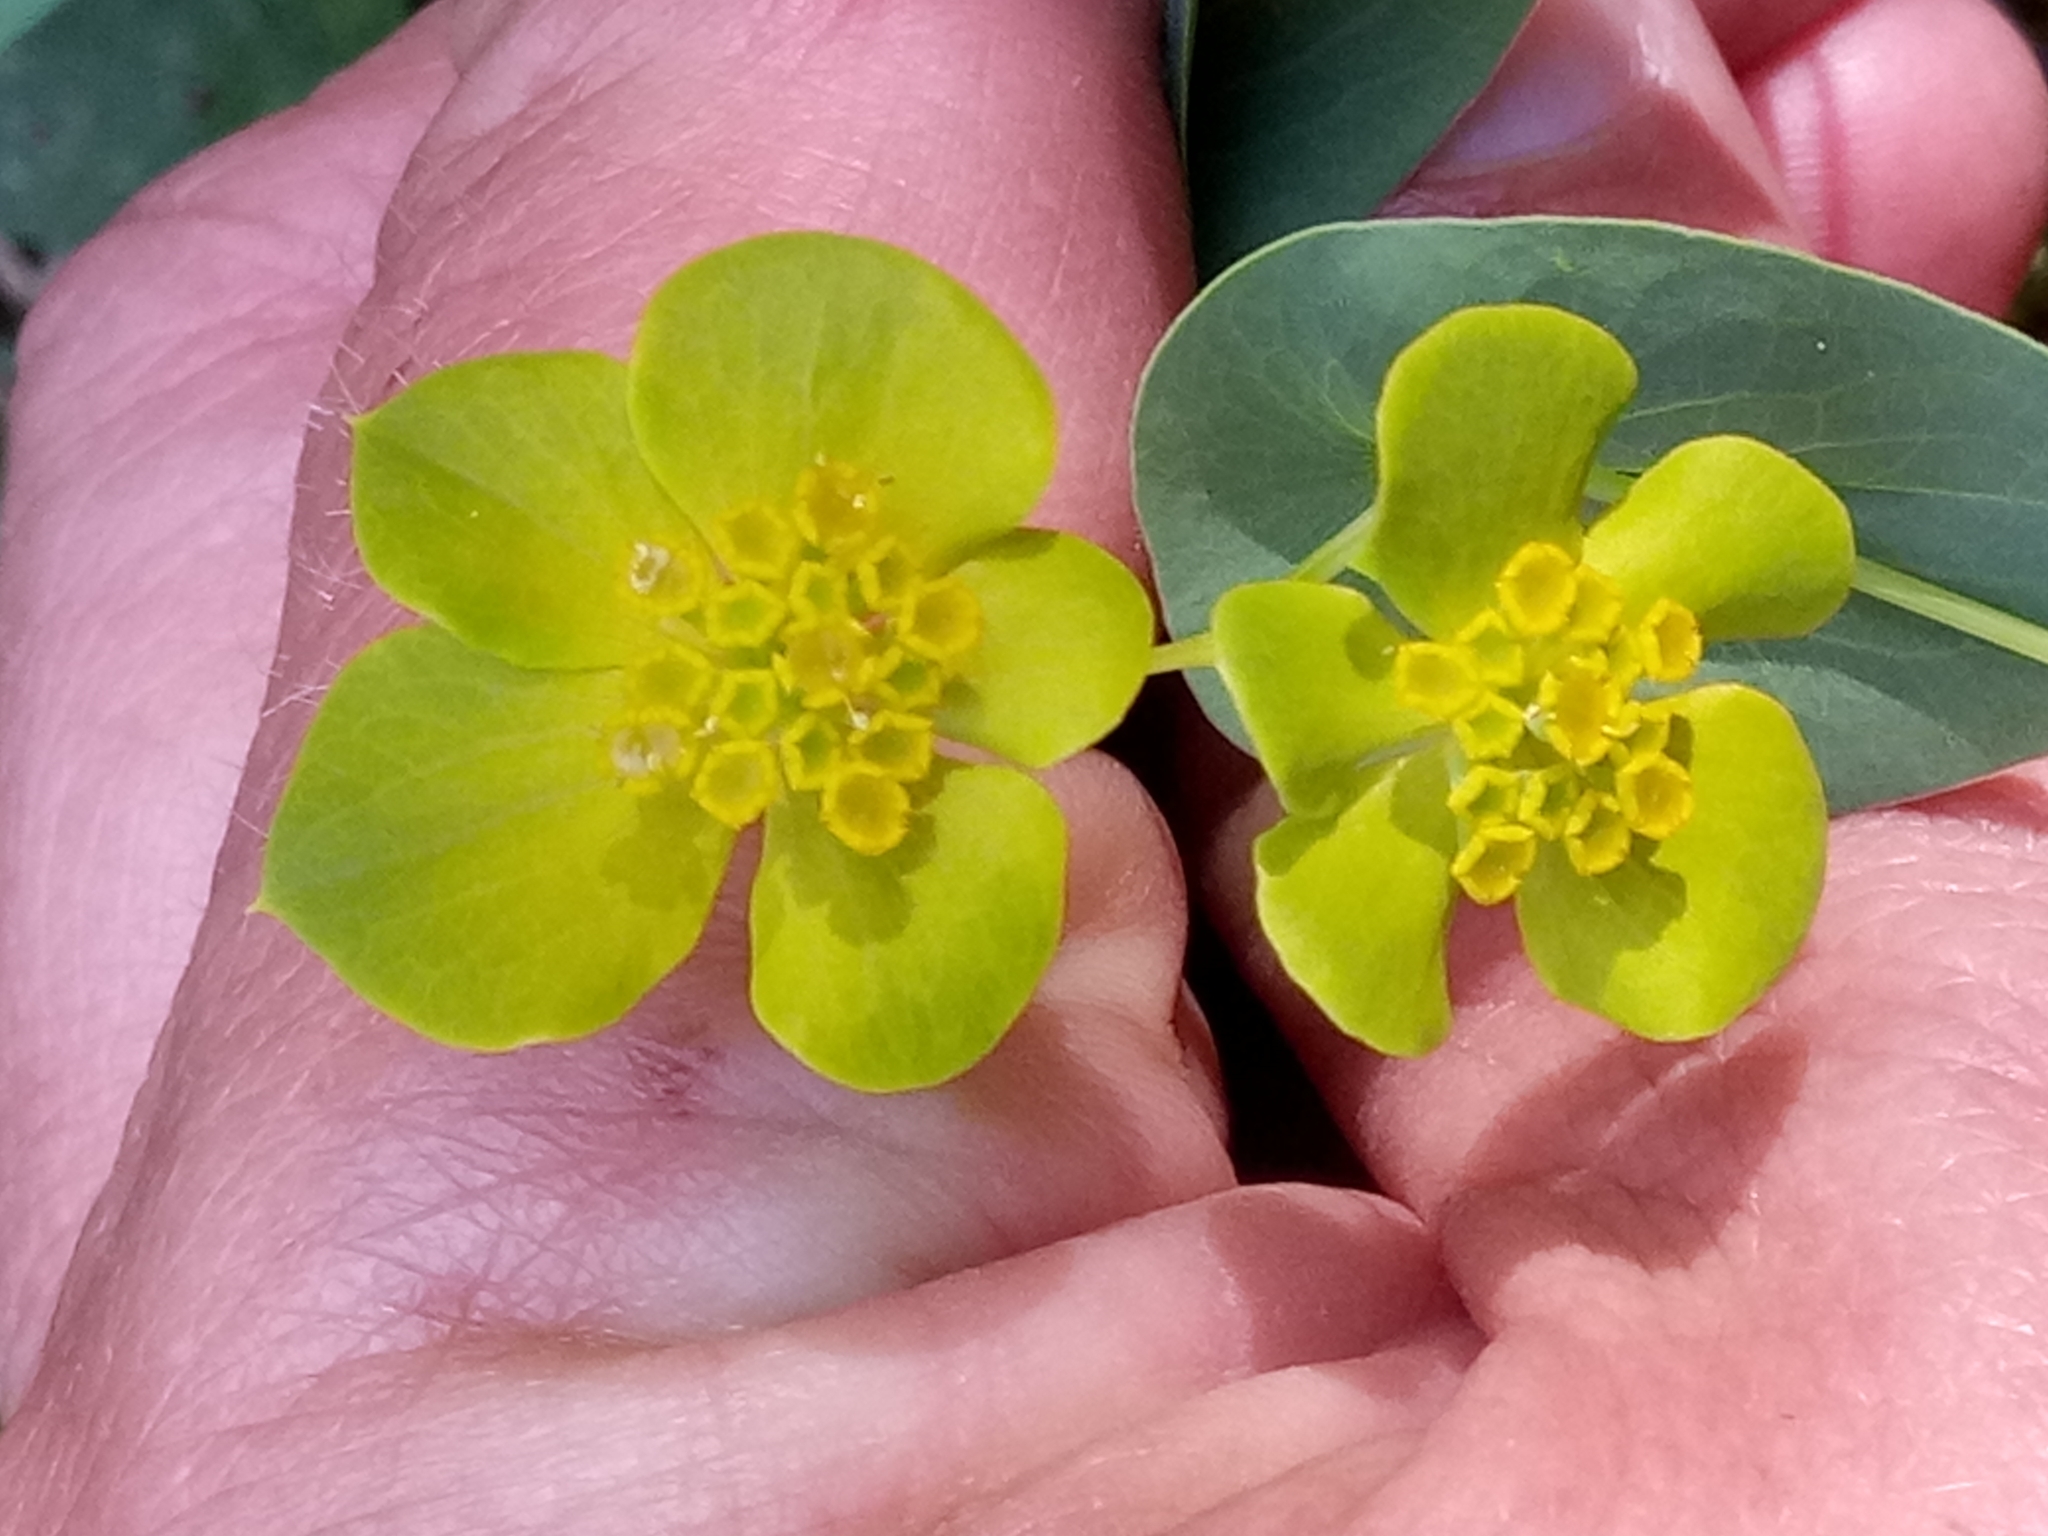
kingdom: Plantae
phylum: Tracheophyta
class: Magnoliopsida
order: Apiales
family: Apiaceae
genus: Bupleurum
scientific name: Bupleurum subovatum
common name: False thorow-wax
